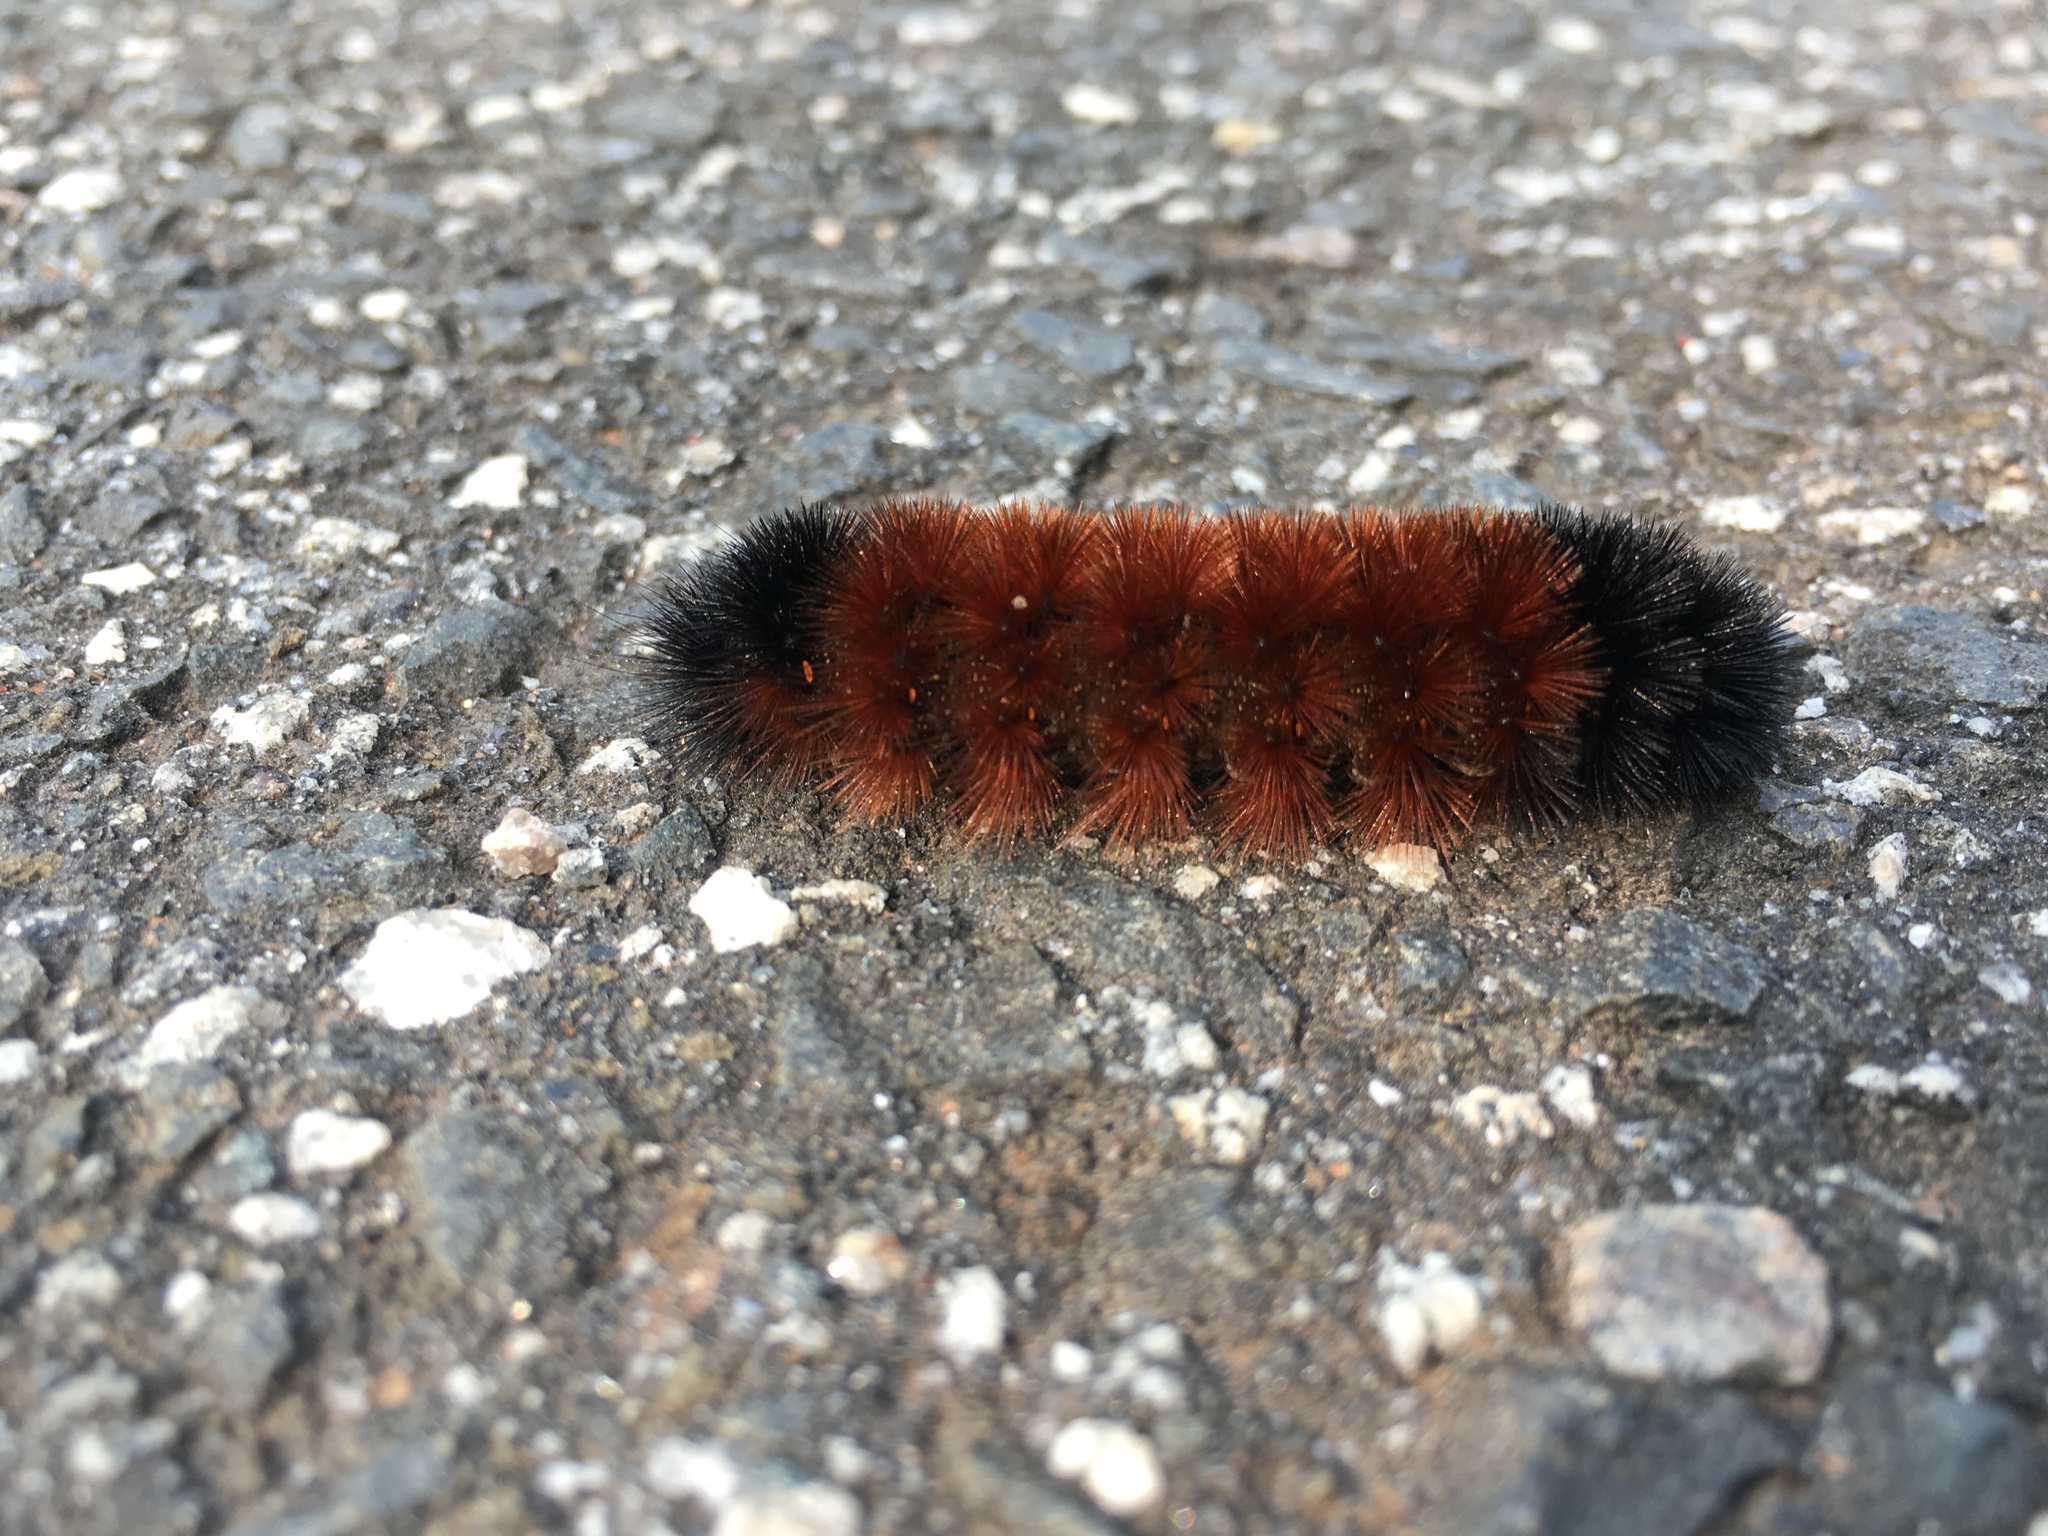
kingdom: Animalia
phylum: Arthropoda
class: Insecta
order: Lepidoptera
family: Erebidae
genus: Pyrrharctia
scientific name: Pyrrharctia isabella
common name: Isabella tiger moth
